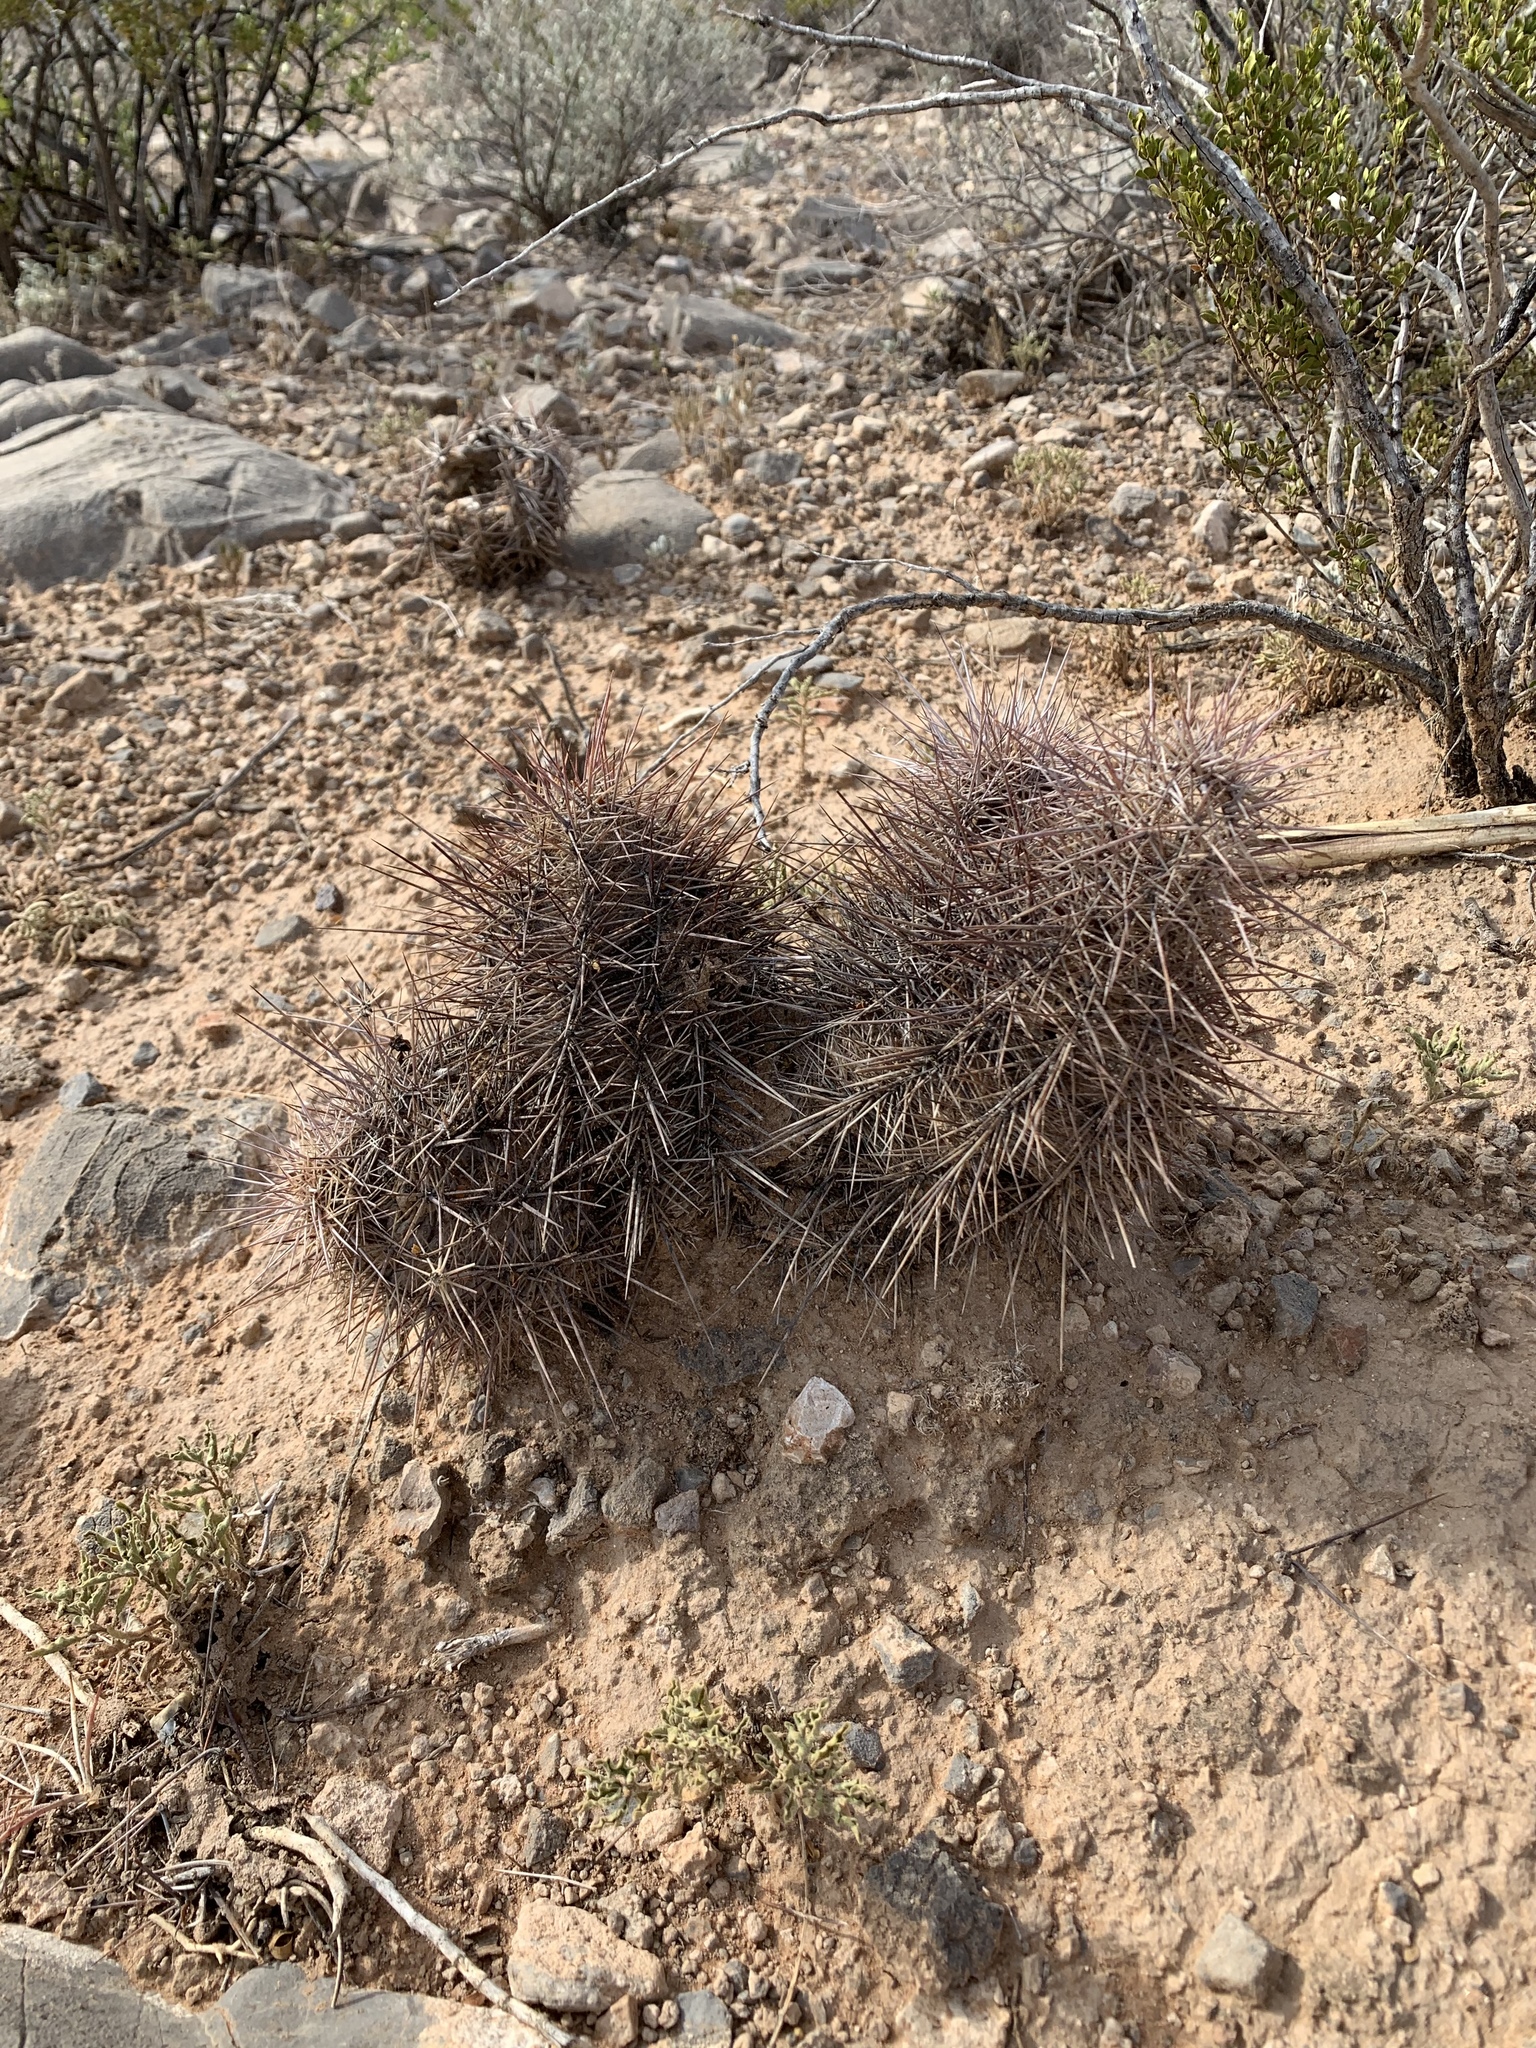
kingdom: Plantae
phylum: Tracheophyta
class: Magnoliopsida
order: Caryophyllales
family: Cactaceae
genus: Echinocereus
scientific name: Echinocereus coccineus
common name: Scarlet hedgehog cactus
